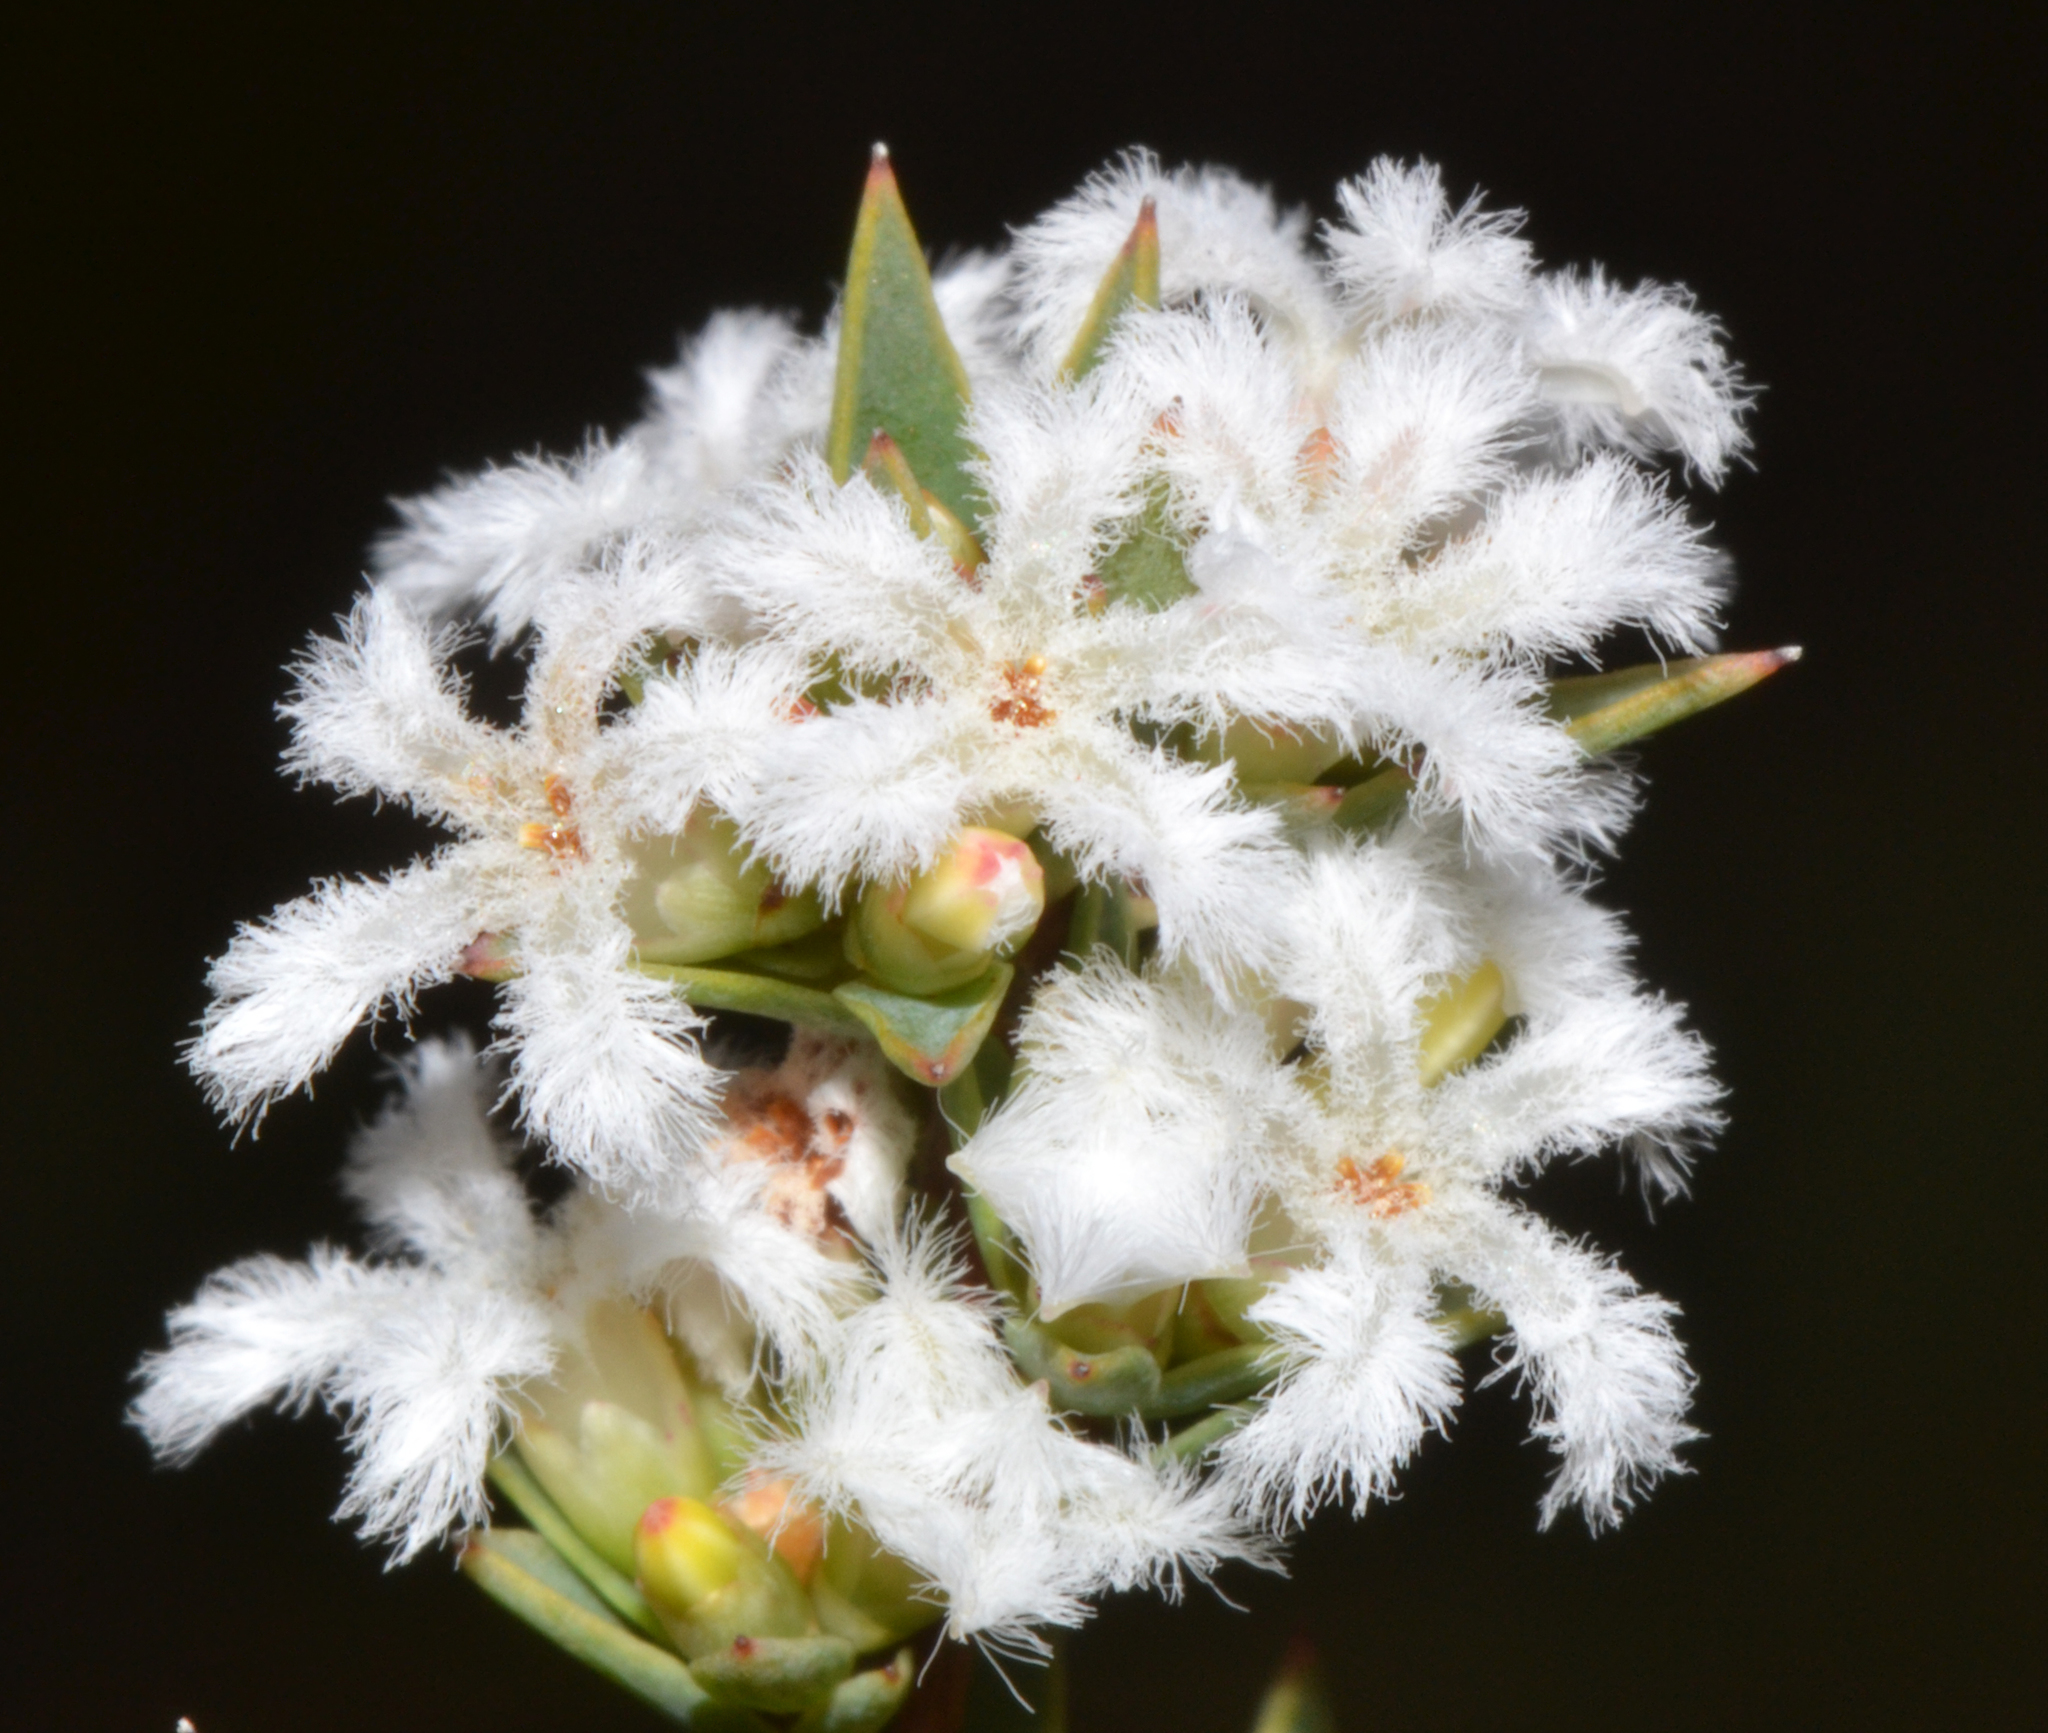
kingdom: Plantae
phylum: Tracheophyta
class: Magnoliopsida
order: Ericales
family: Ericaceae
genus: Leucopogon
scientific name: Leucopogon oliganthus
